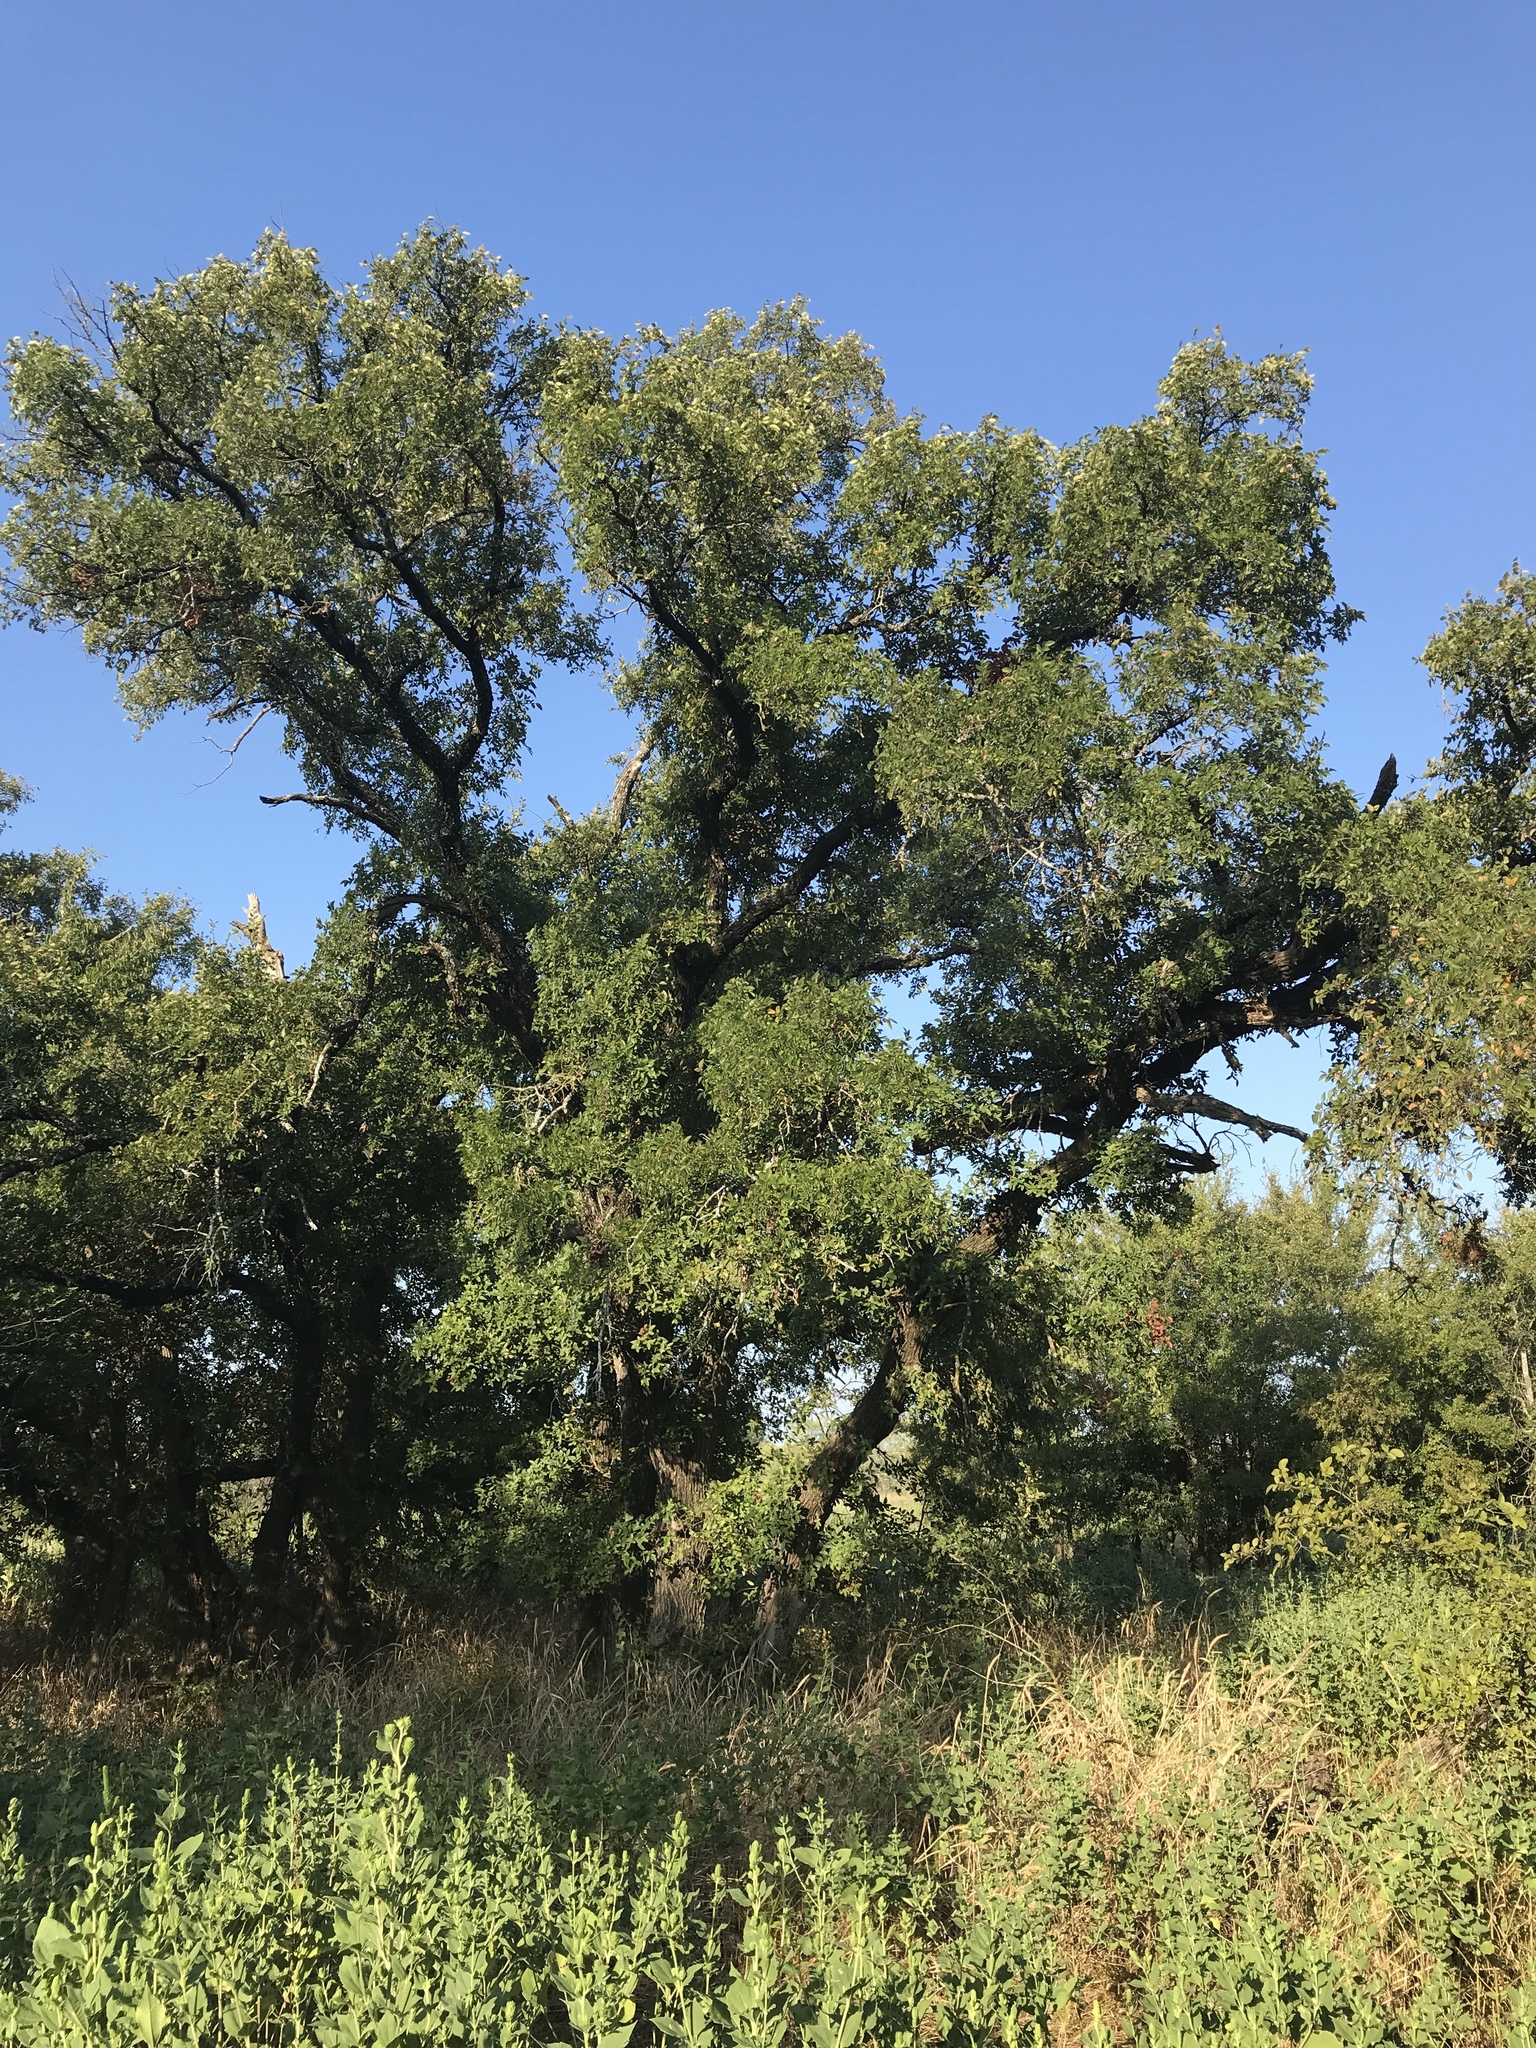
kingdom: Plantae
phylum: Tracheophyta
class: Magnoliopsida
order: Rosales
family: Ulmaceae
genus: Ulmus
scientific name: Ulmus crassifolia
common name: Basket elm
